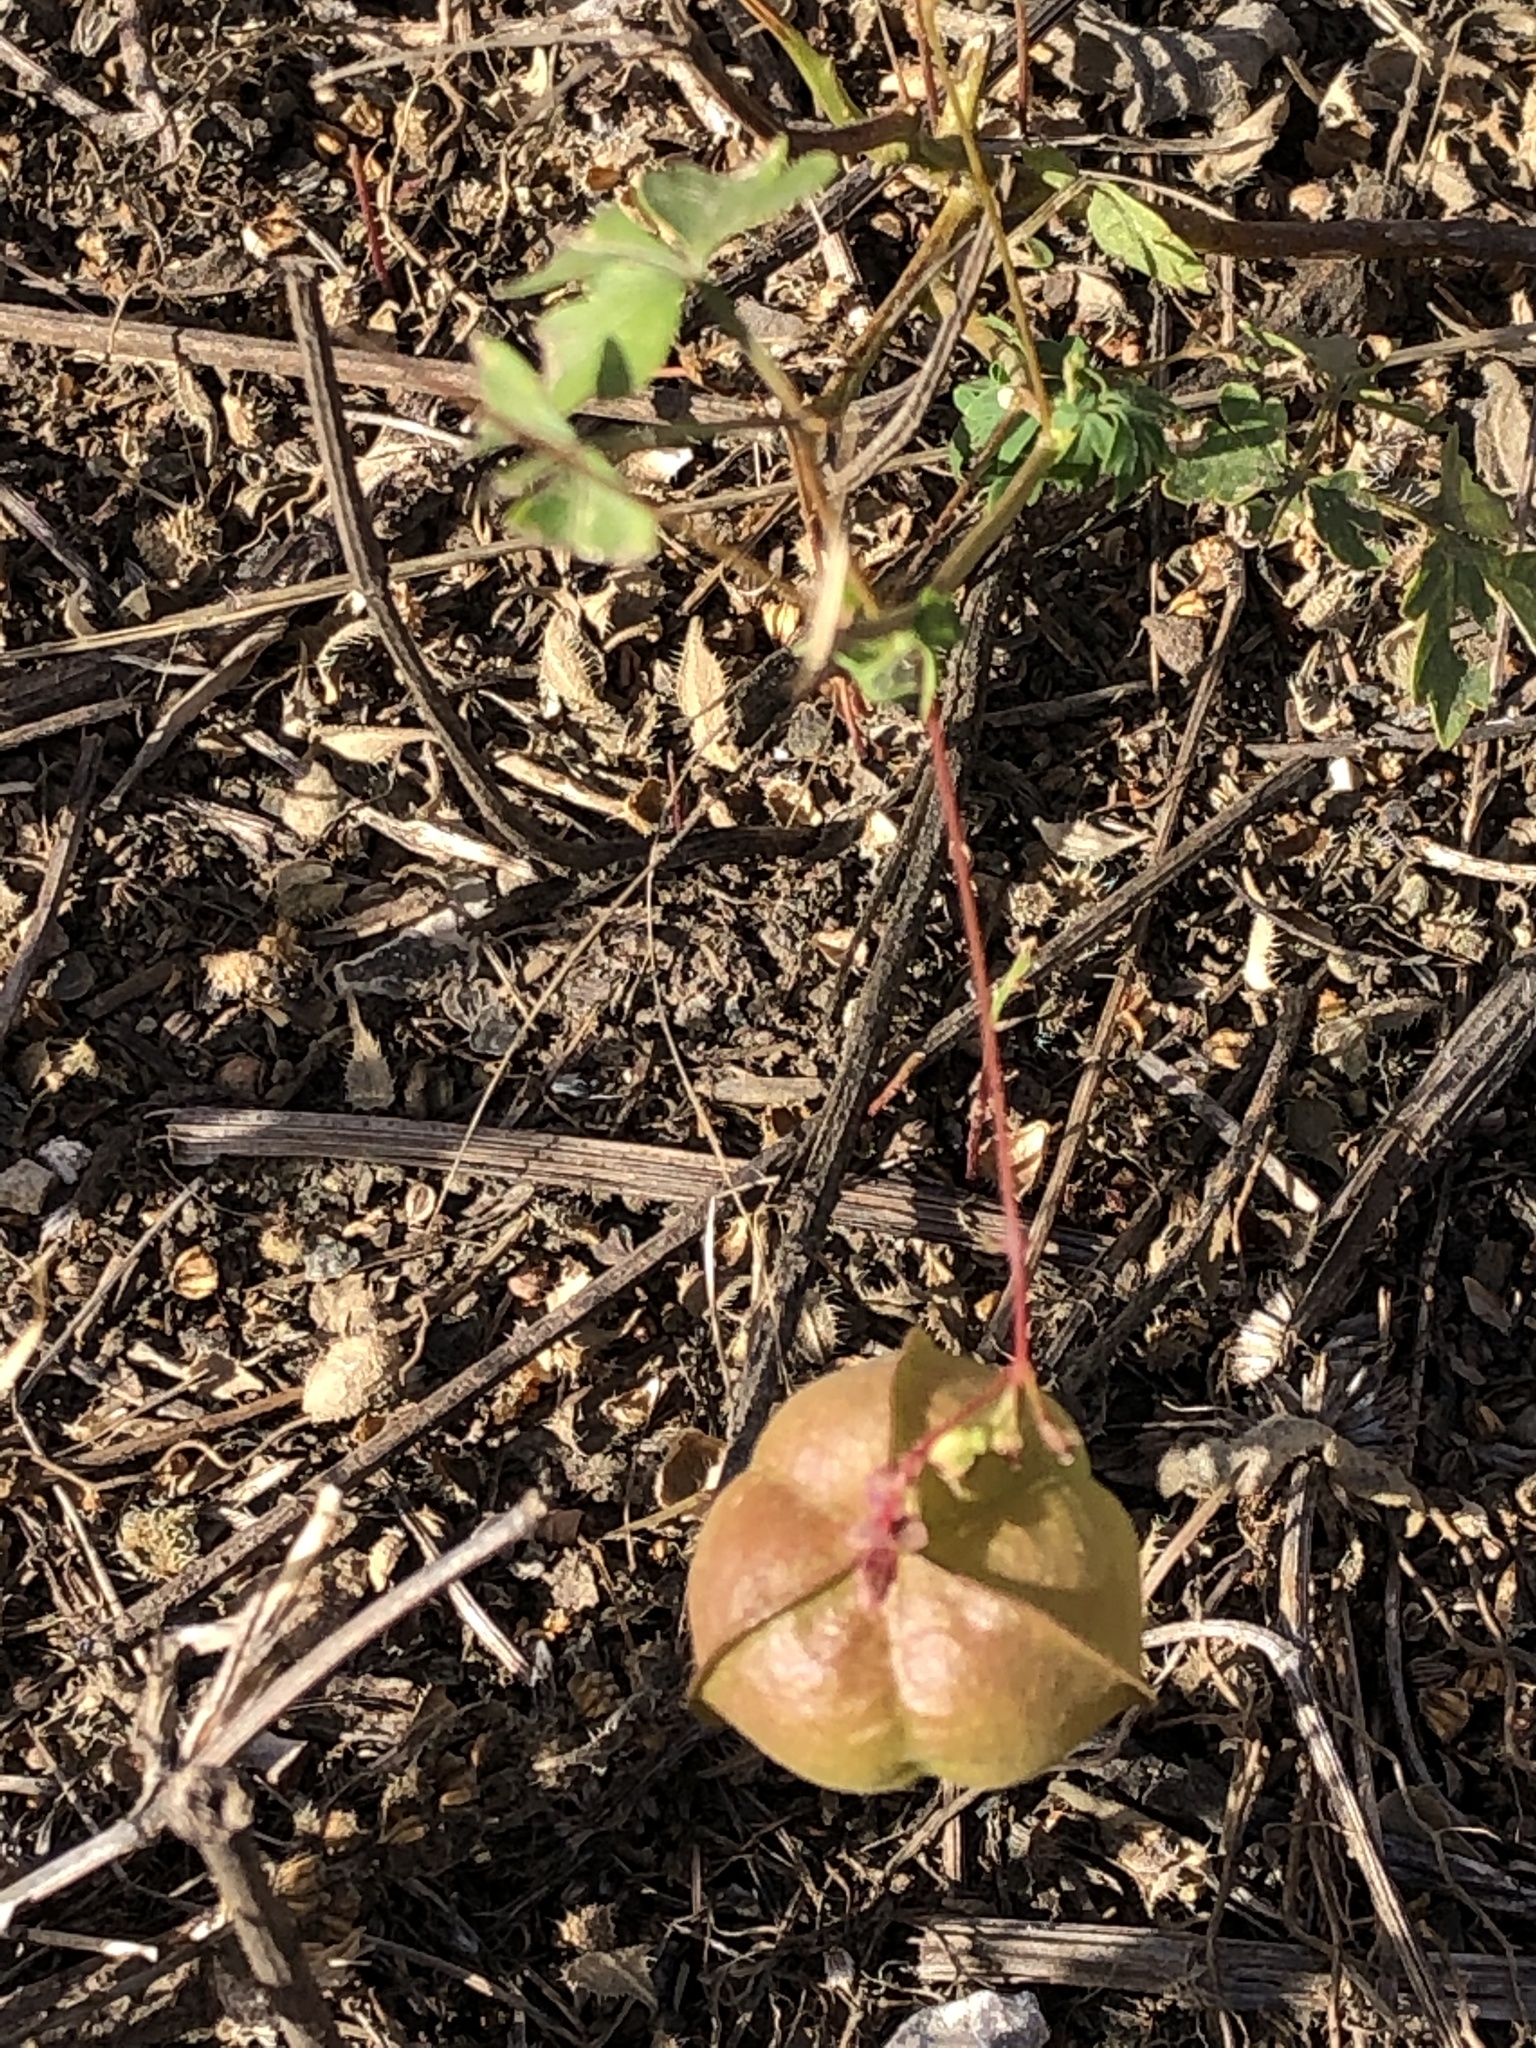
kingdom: Plantae
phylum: Tracheophyta
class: Magnoliopsida
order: Sapindales
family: Sapindaceae
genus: Cardiospermum
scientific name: Cardiospermum halicacabum
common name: Balloon vine
